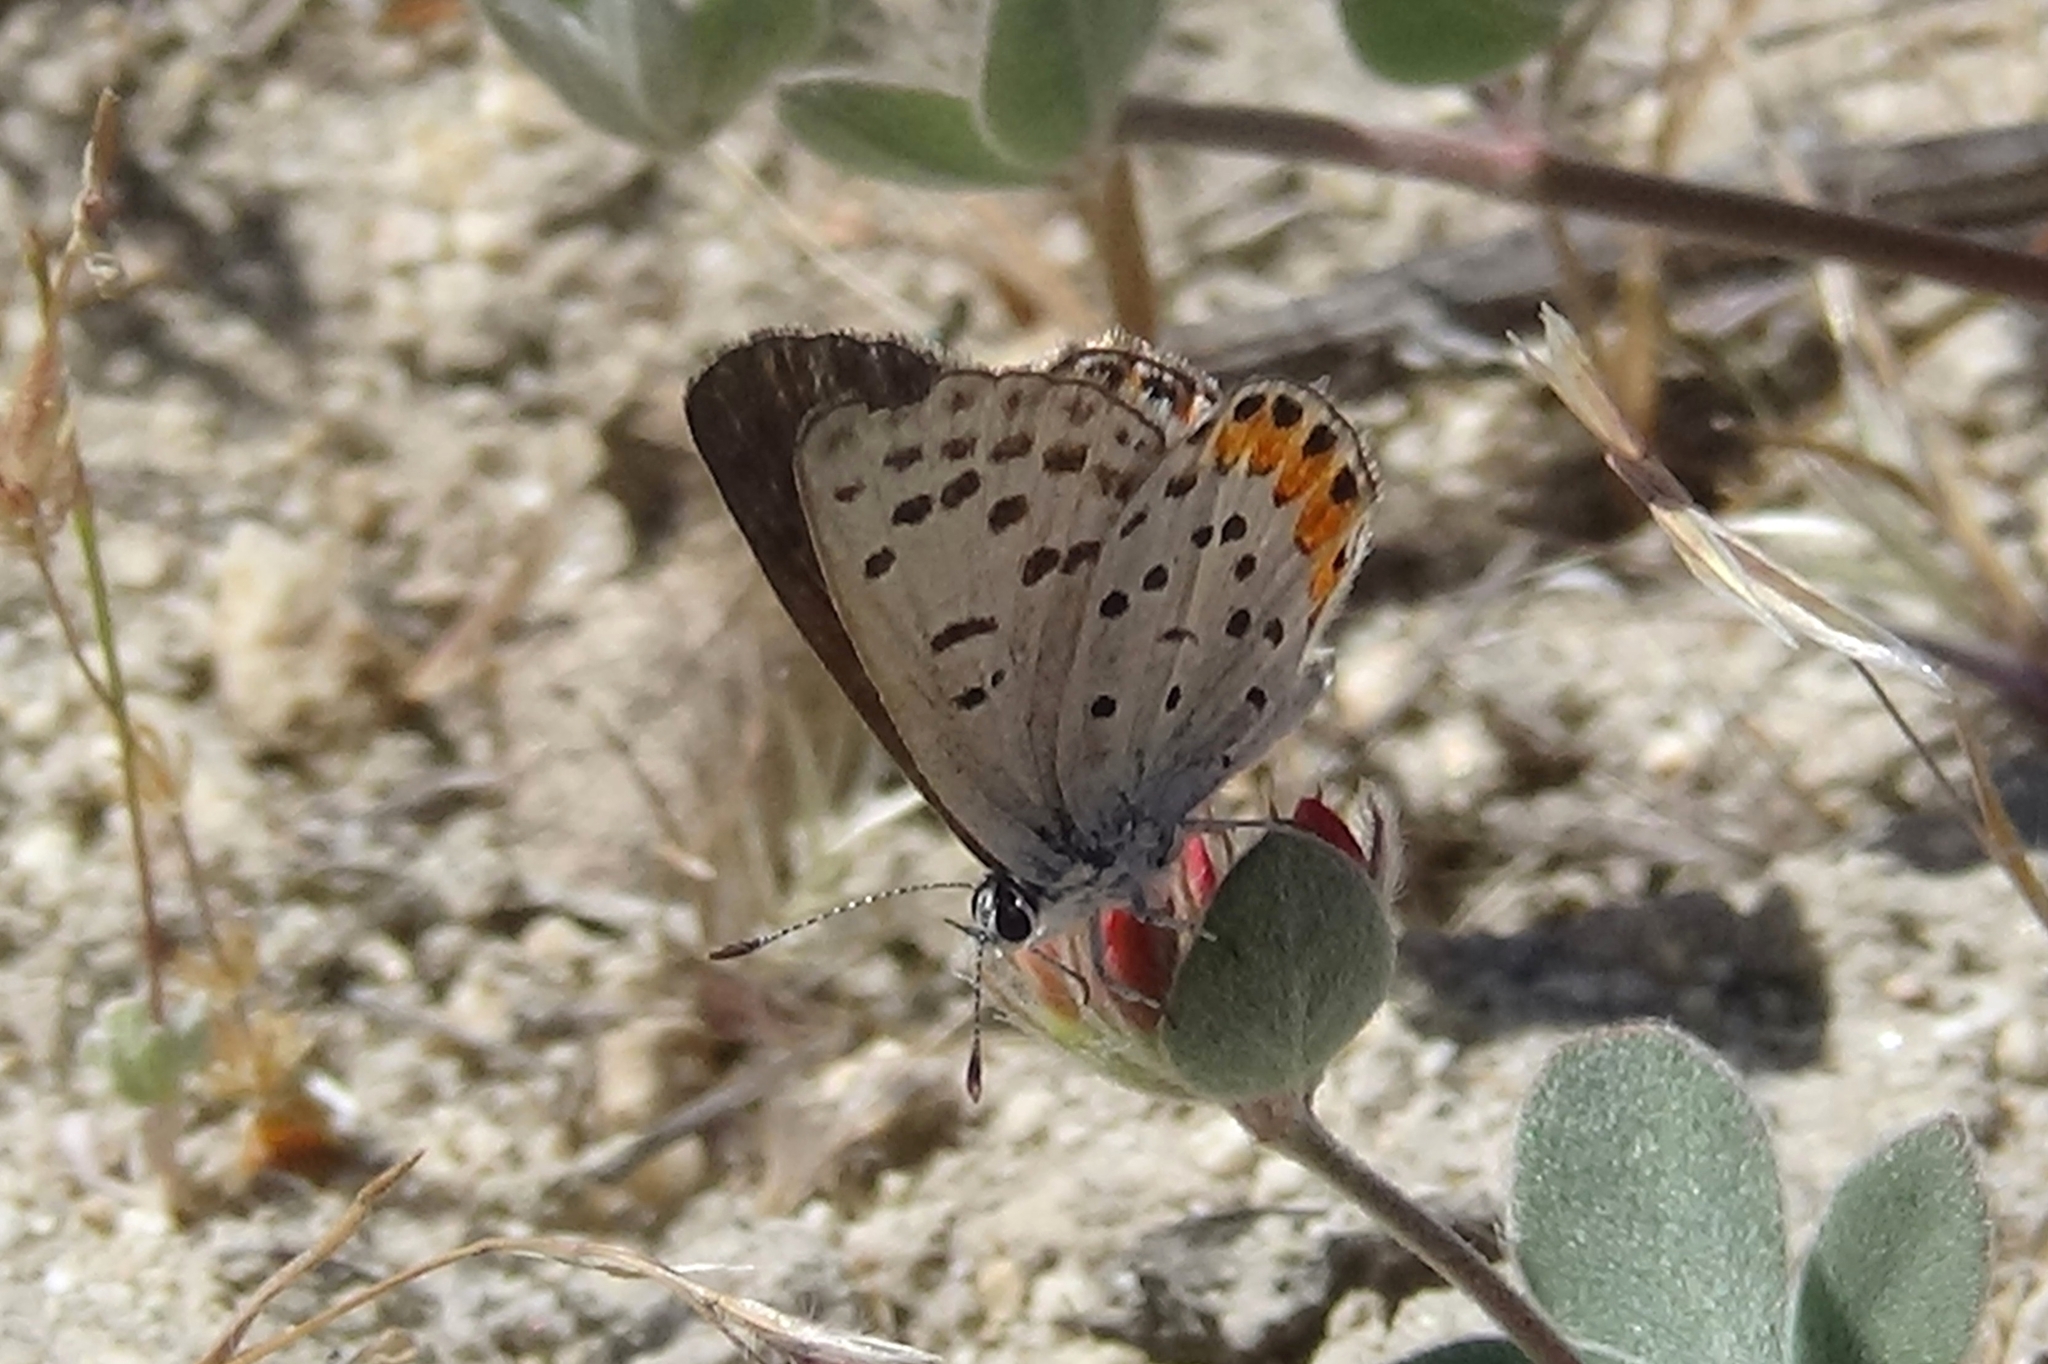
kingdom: Animalia
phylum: Arthropoda
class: Insecta
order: Lepidoptera
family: Lycaenidae
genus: Icaricia
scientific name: Icaricia acmon
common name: Acmon blue
